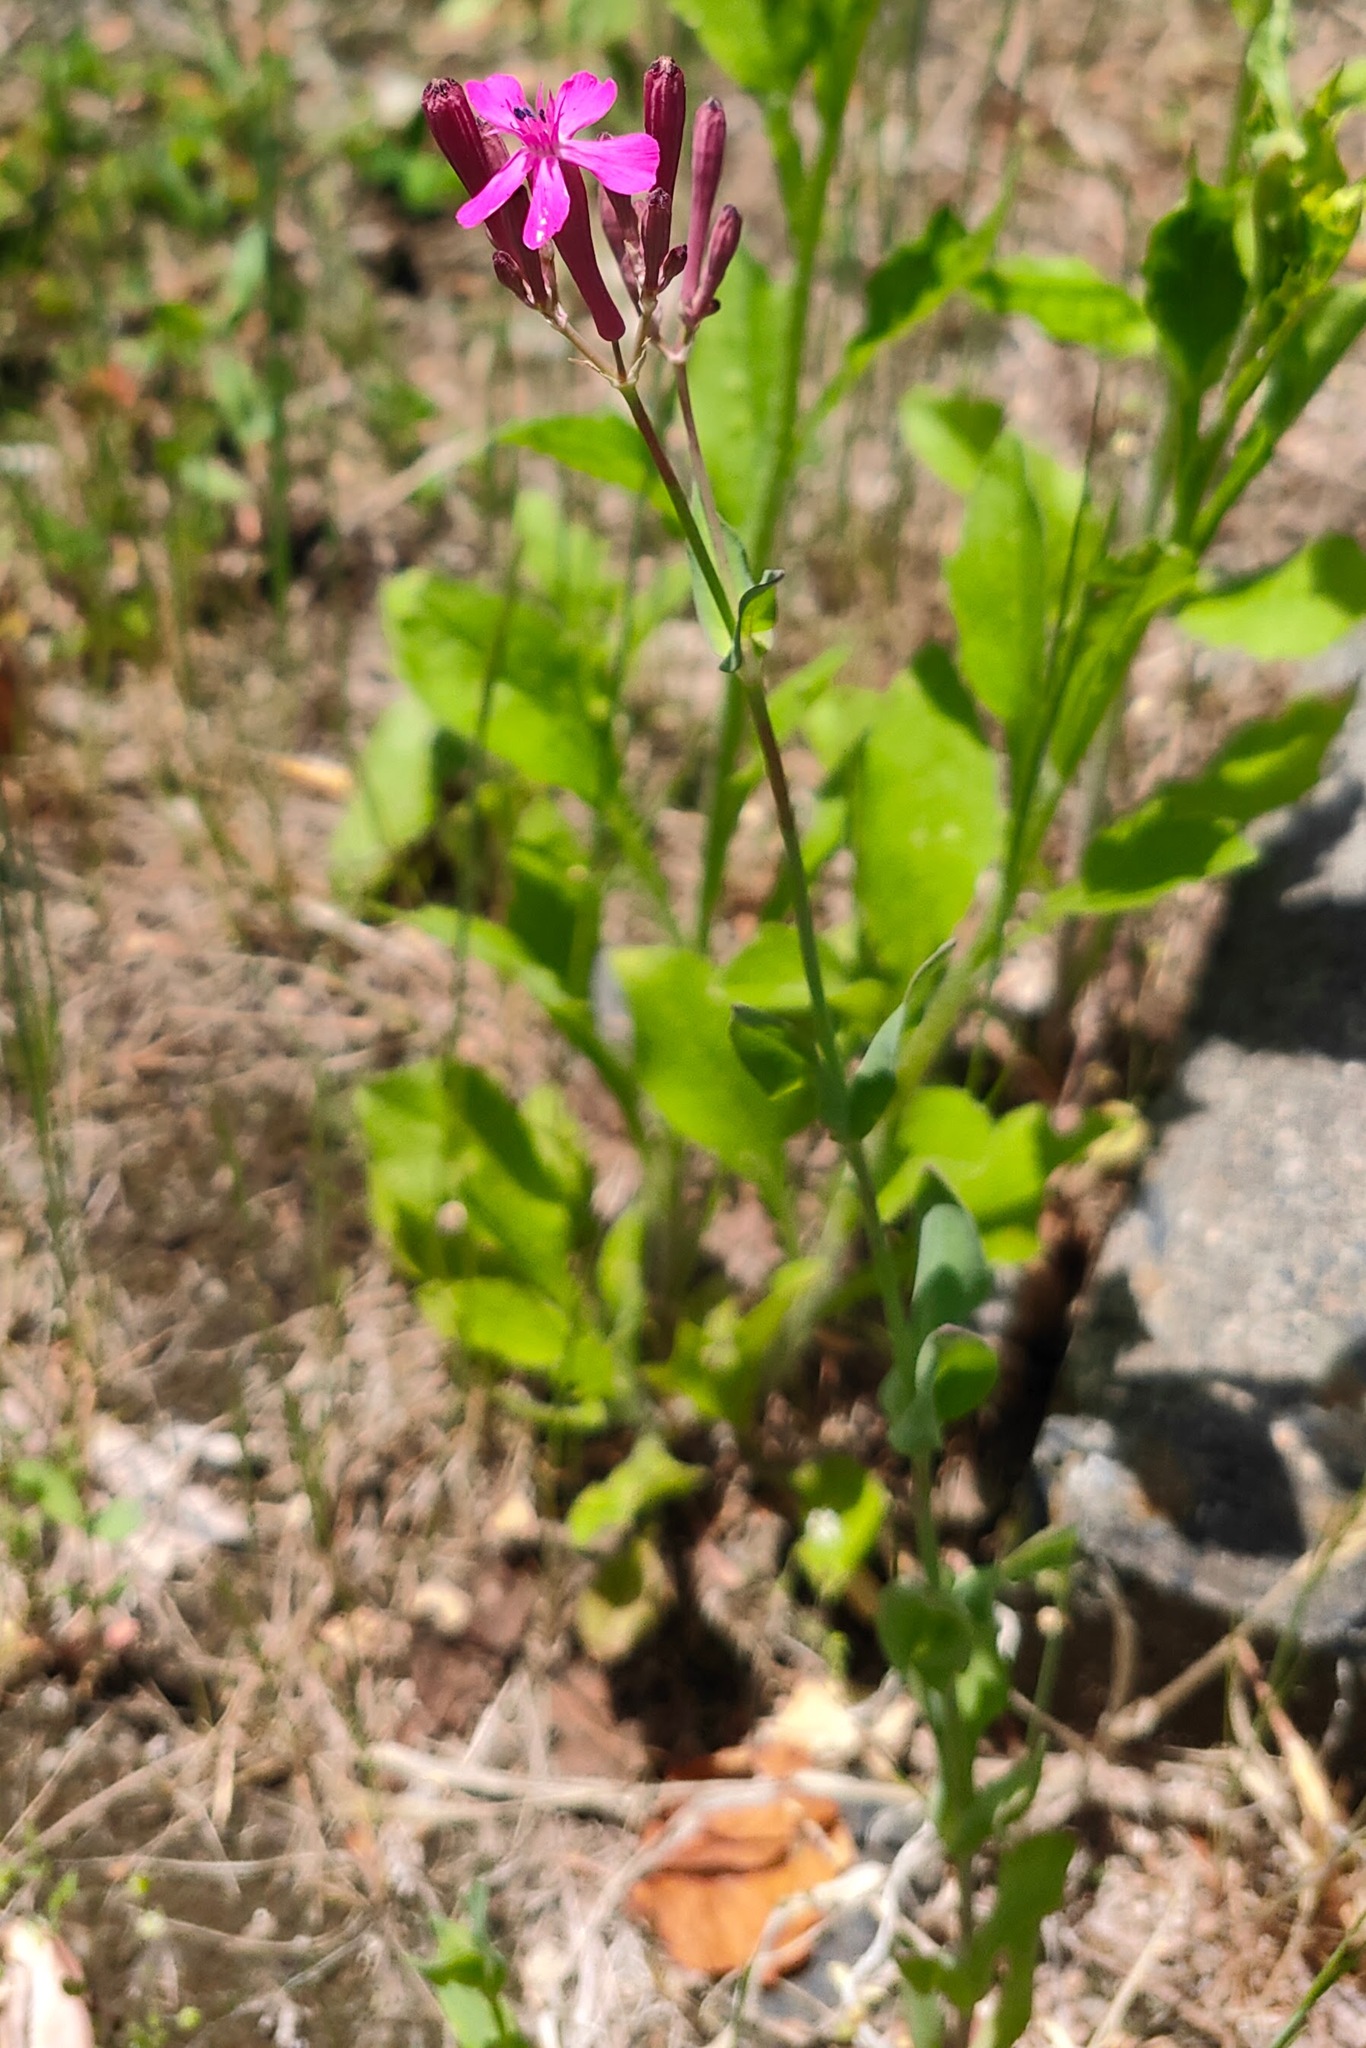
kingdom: Plantae
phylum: Tracheophyta
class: Magnoliopsida
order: Caryophyllales
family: Caryophyllaceae
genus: Atocion
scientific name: Atocion armeria
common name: Sweet william catchfly
